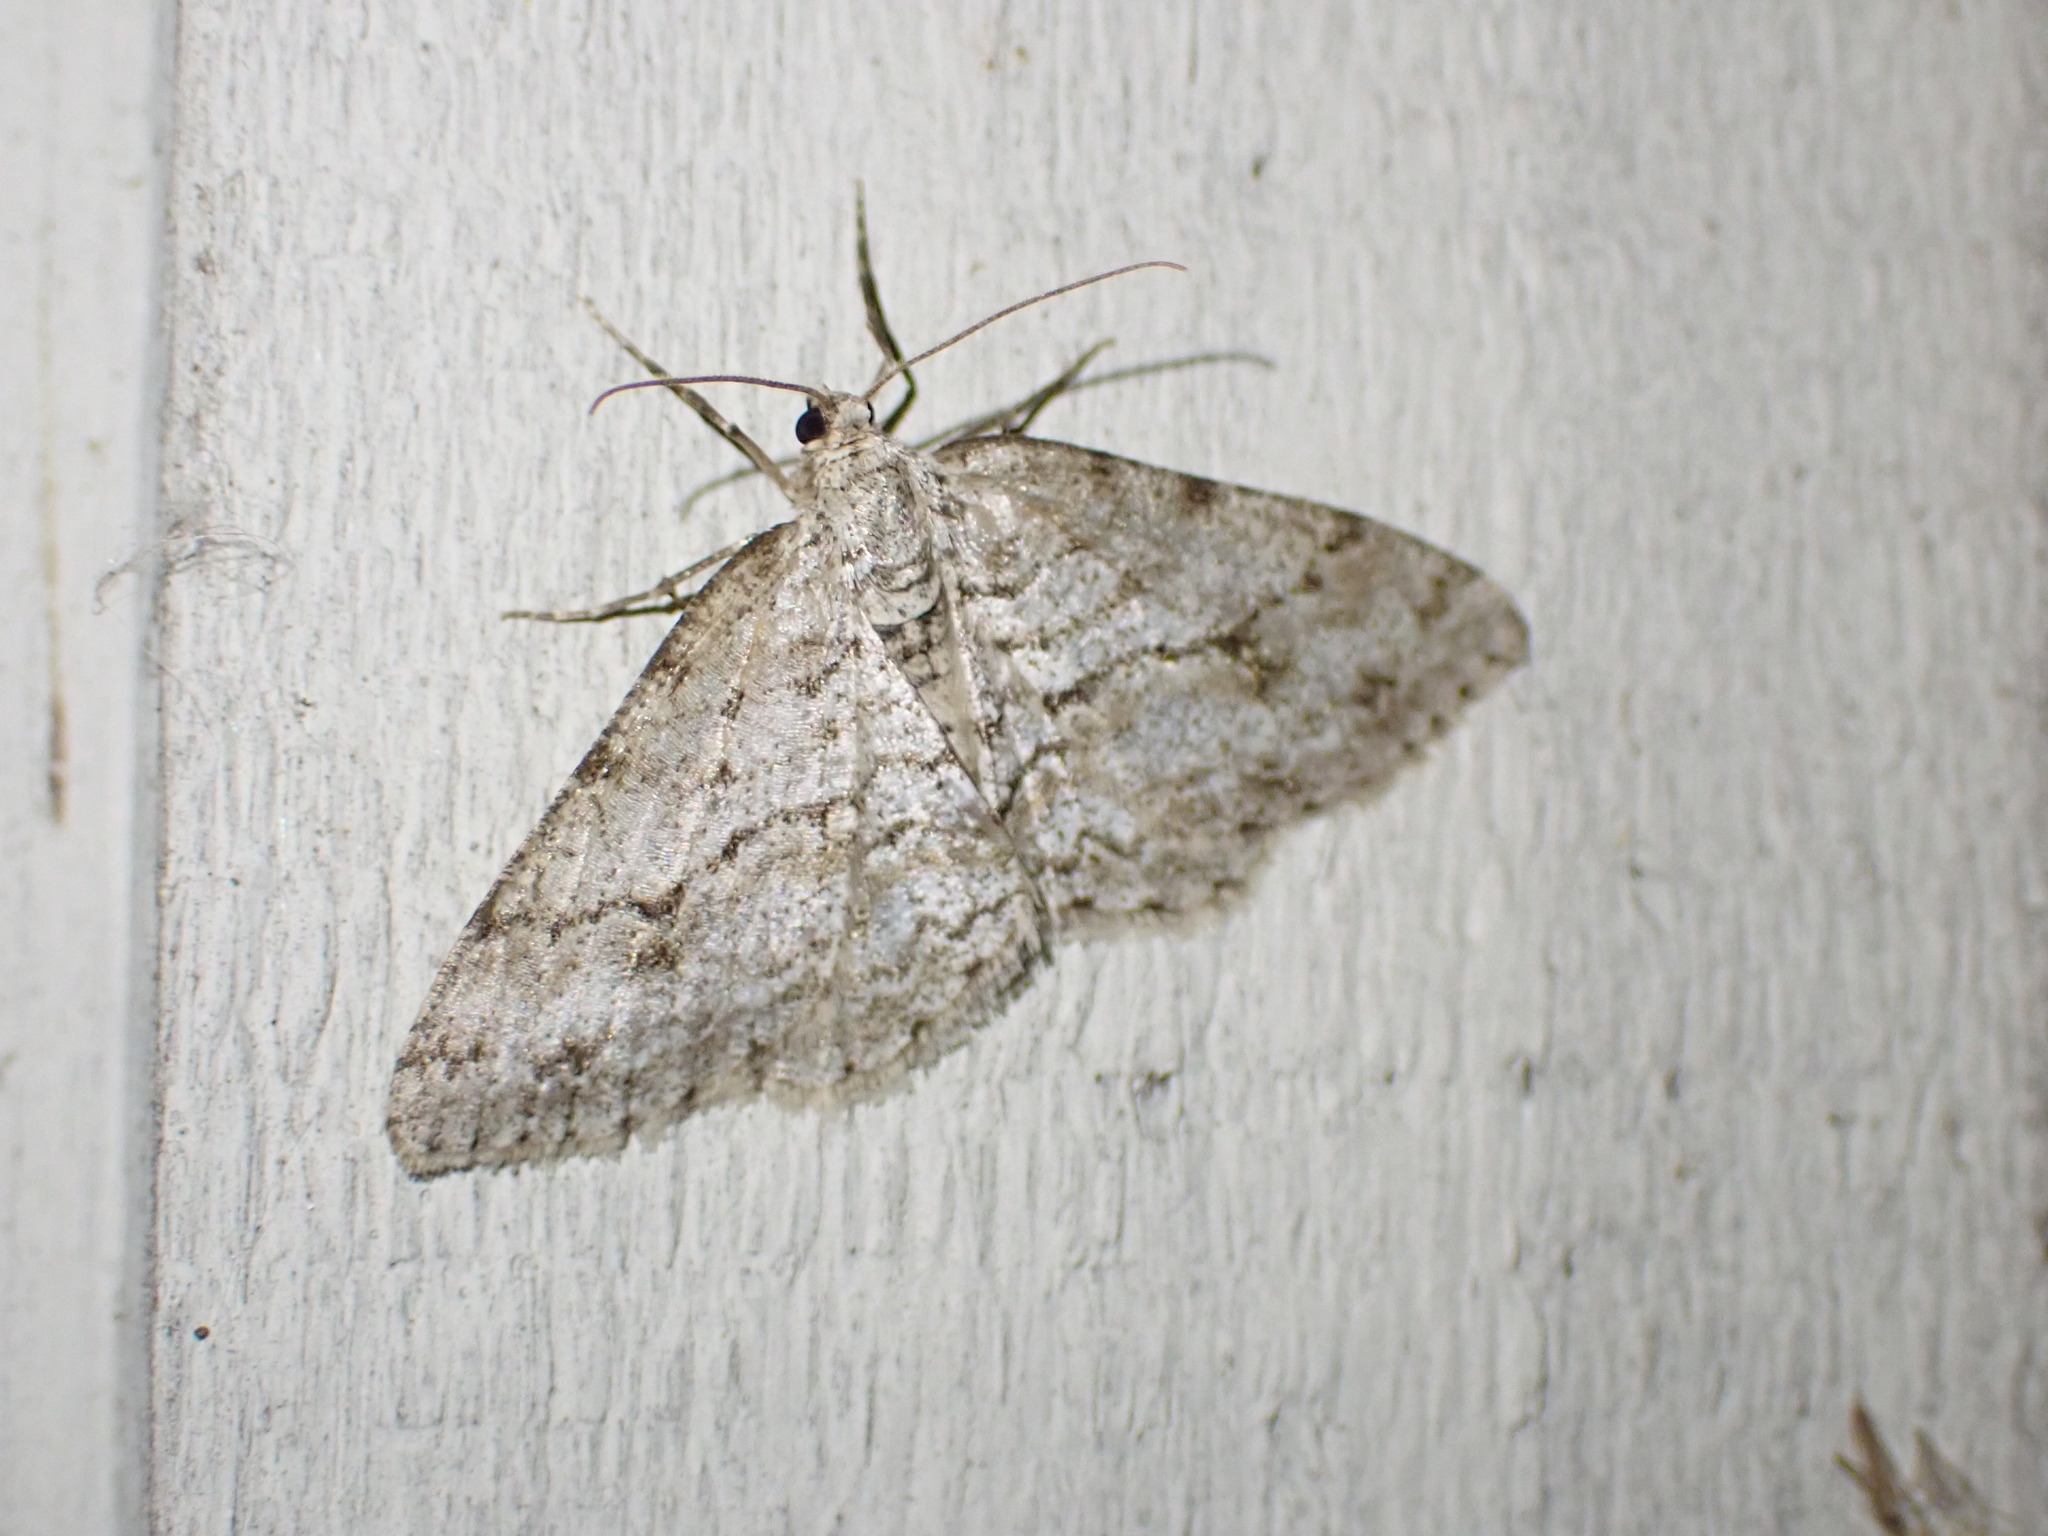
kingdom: Animalia
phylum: Arthropoda
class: Insecta
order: Lepidoptera
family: Geometridae
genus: Ectropis
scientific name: Ectropis crepuscularia
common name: Engrailed
